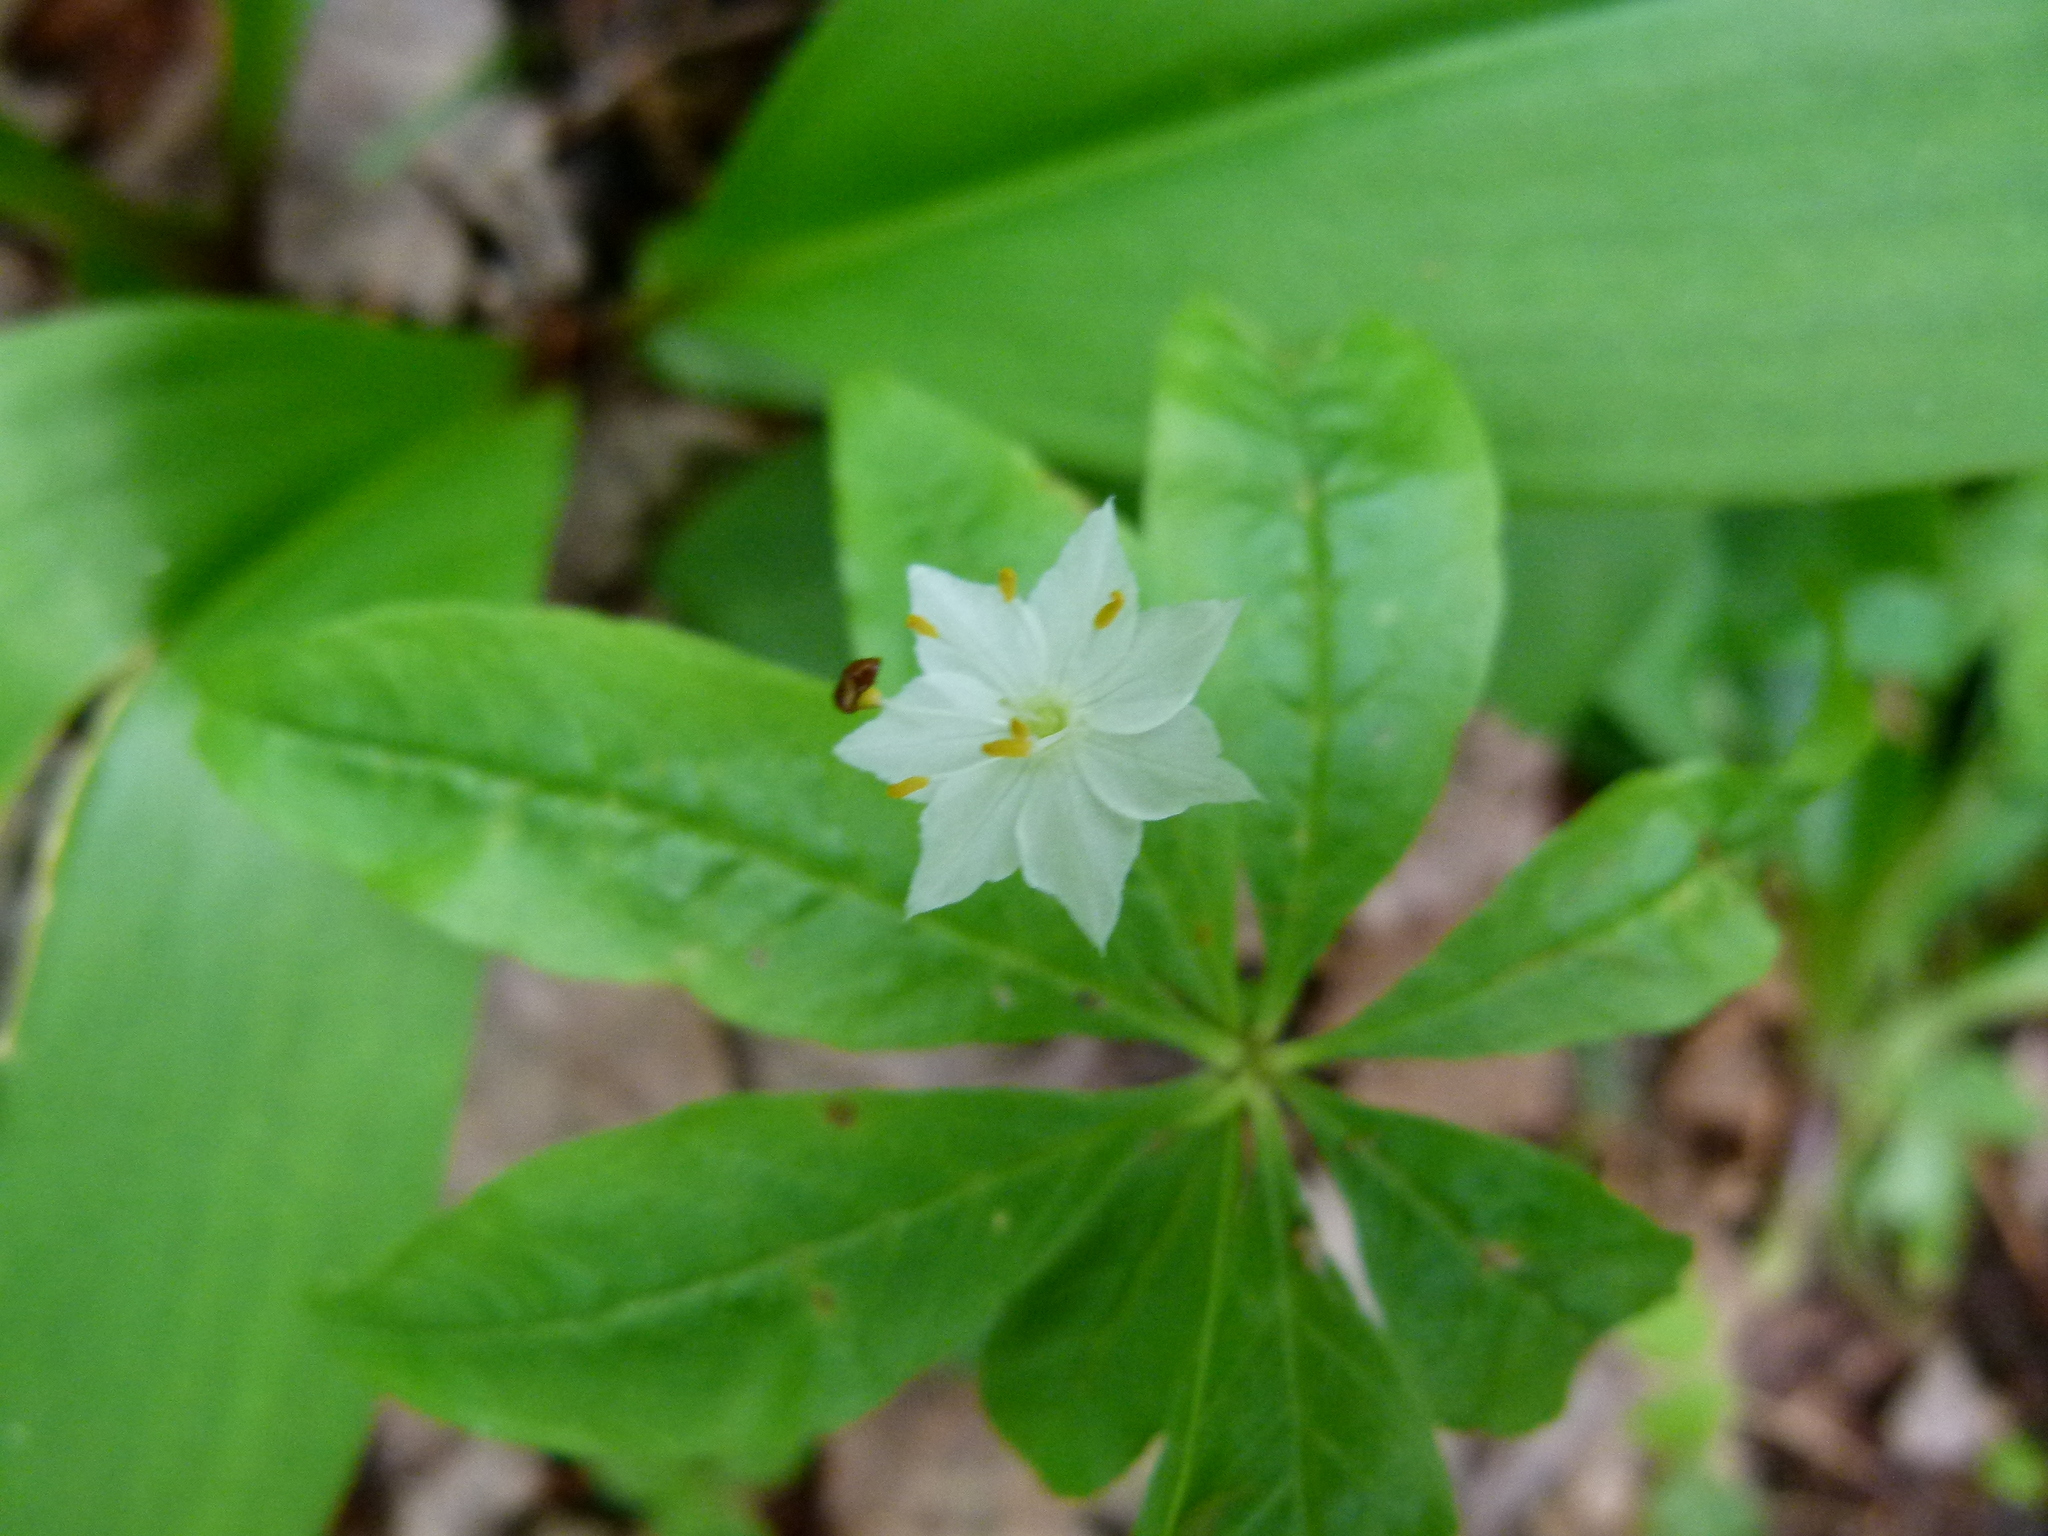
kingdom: Plantae
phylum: Tracheophyta
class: Magnoliopsida
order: Ericales
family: Primulaceae
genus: Lysimachia
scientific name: Lysimachia borealis
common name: American starflower
